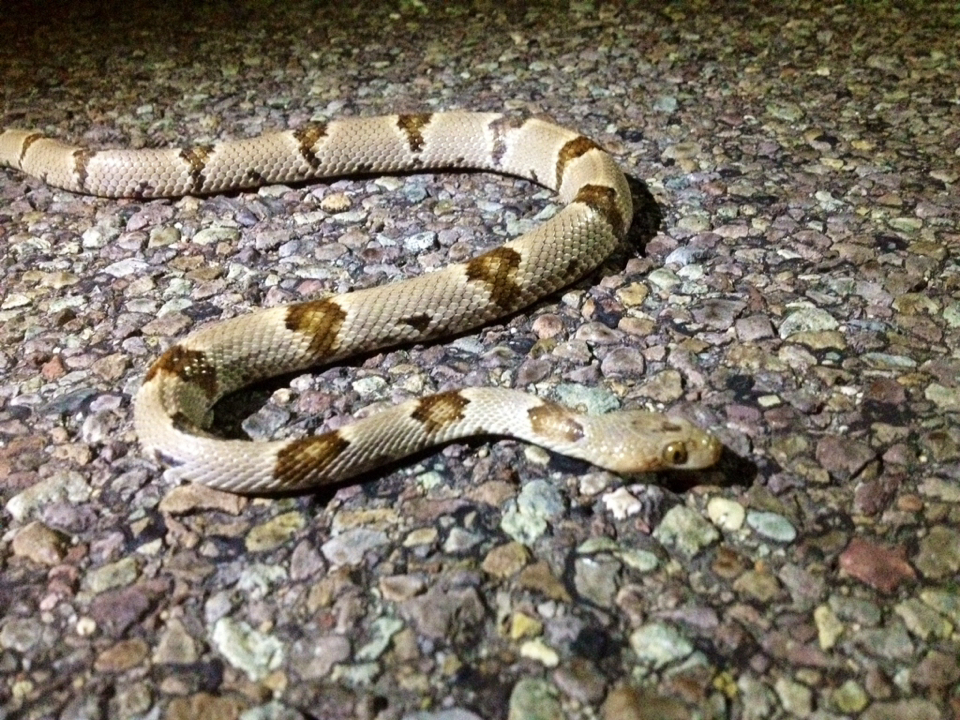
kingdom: Animalia
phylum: Chordata
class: Squamata
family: Colubridae
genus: Trimorphodon
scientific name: Trimorphodon vilkinsonii
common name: Texas lyre snake
